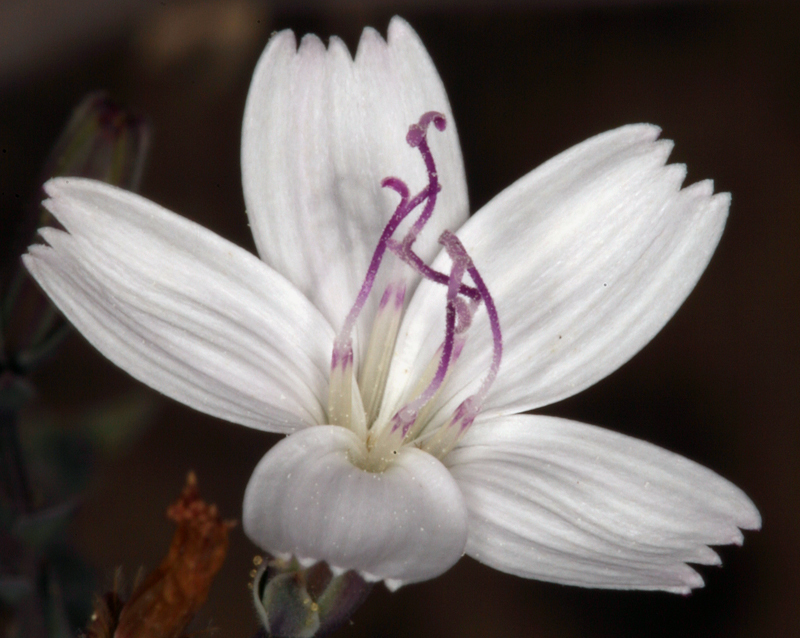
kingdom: Plantae
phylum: Tracheophyta
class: Magnoliopsida
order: Asterales
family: Asteraceae
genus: Stephanomeria
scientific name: Stephanomeria exigua
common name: Small wirelettuce
